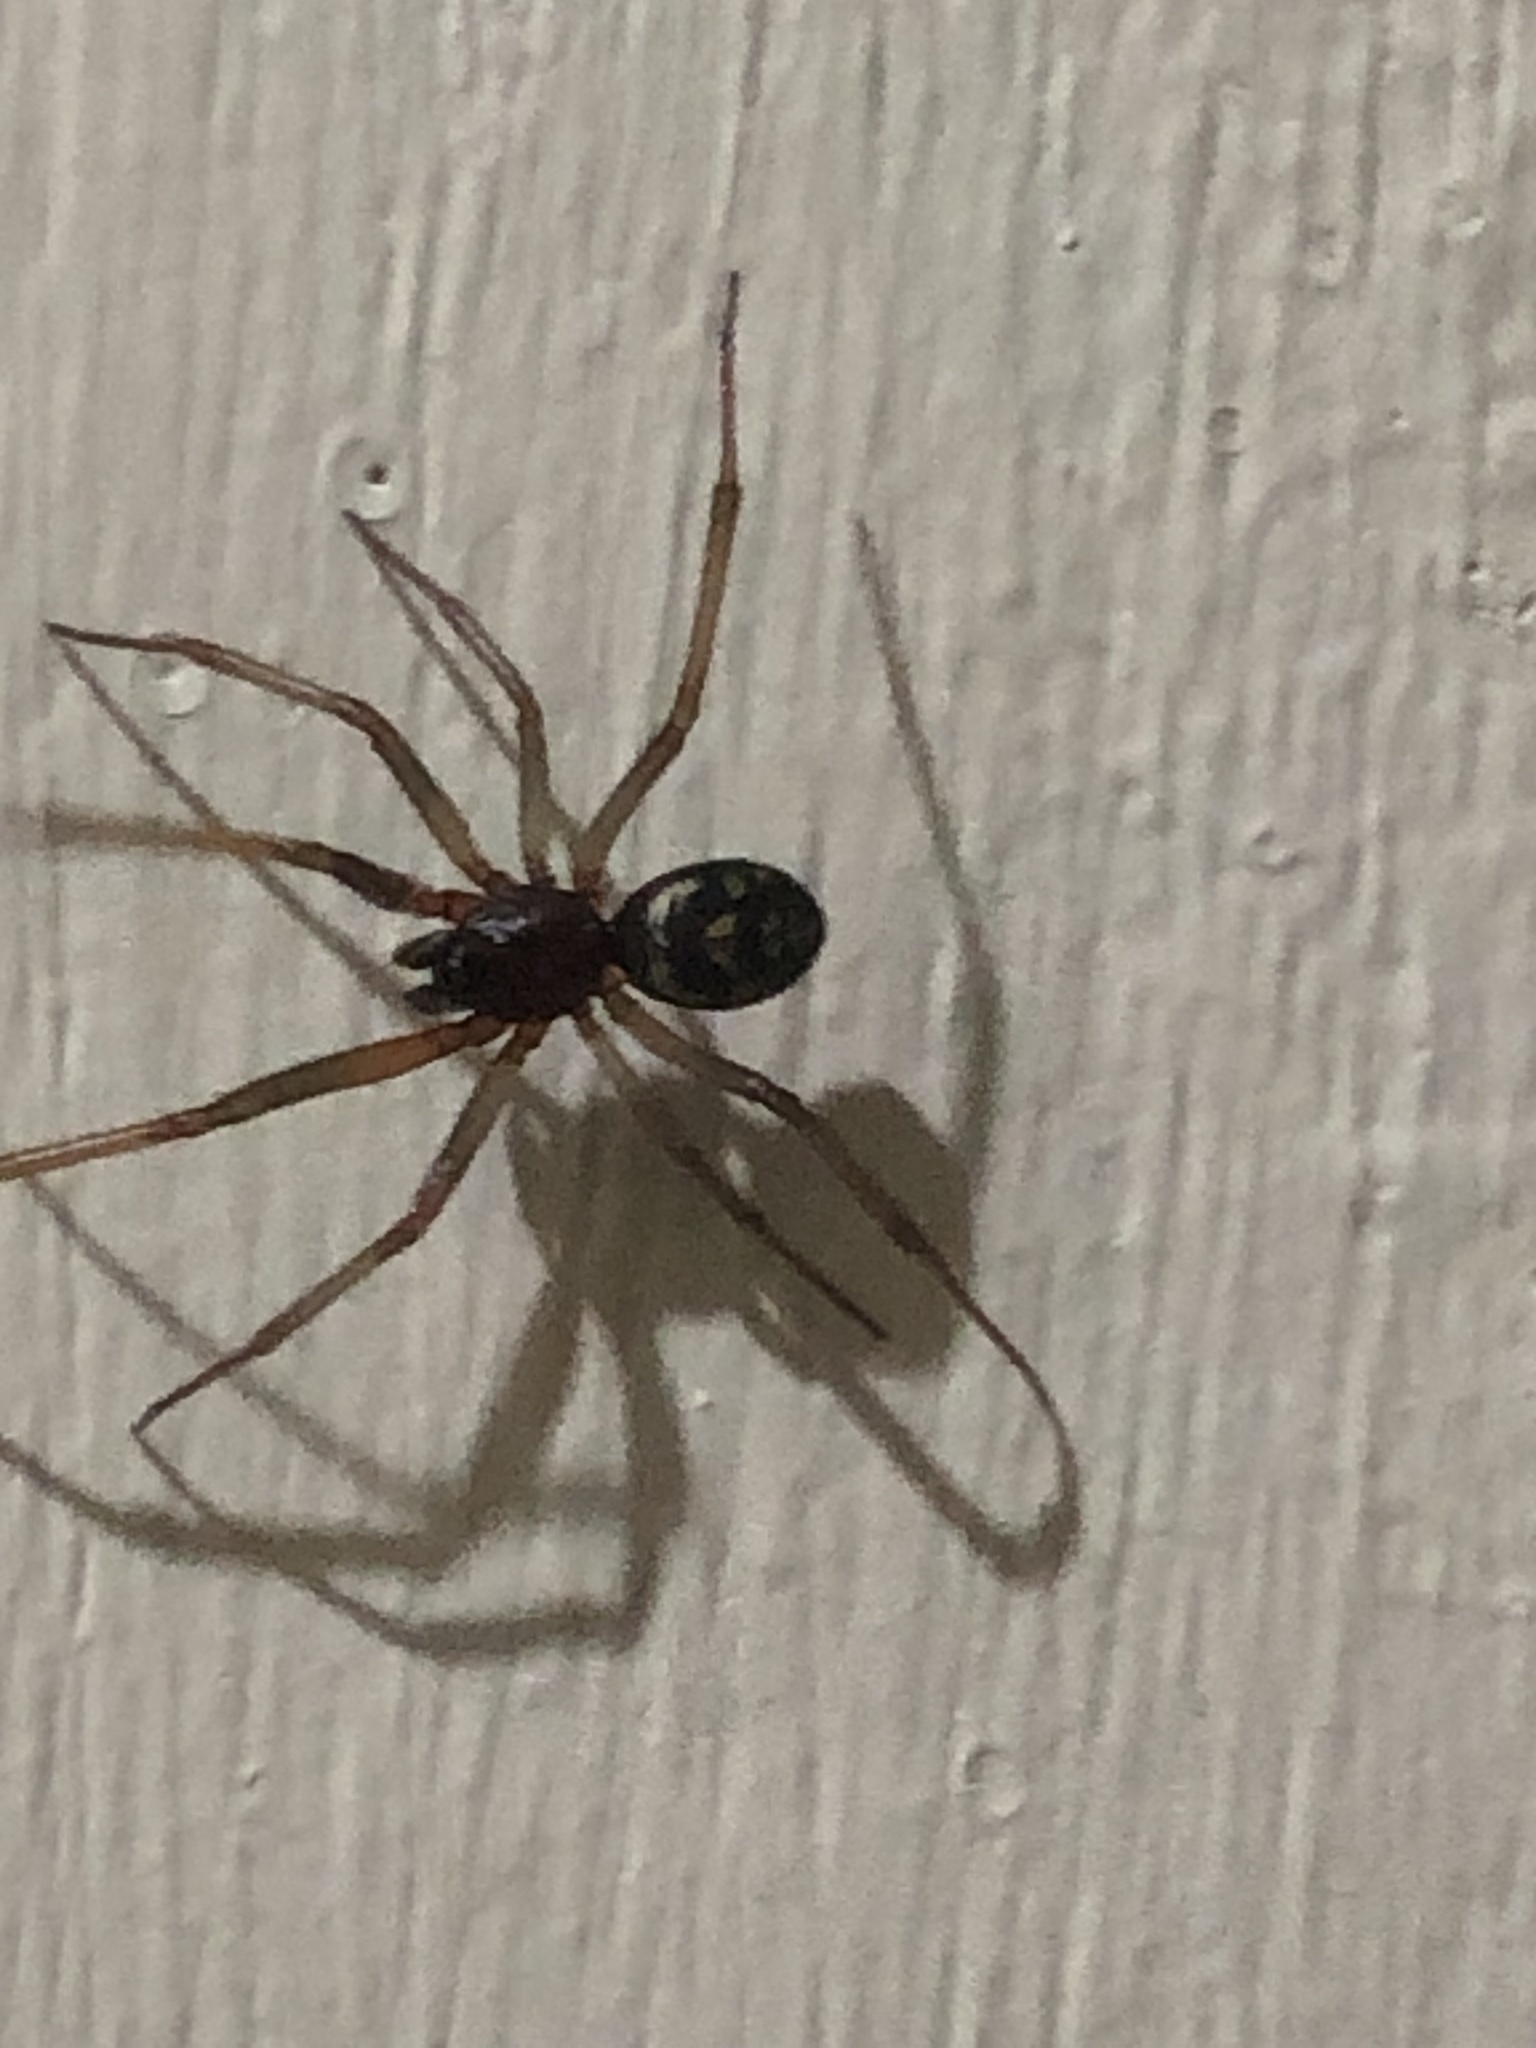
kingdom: Animalia
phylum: Arthropoda
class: Arachnida
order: Araneae
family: Theridiidae
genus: Steatoda
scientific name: Steatoda grossa
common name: False black widow
